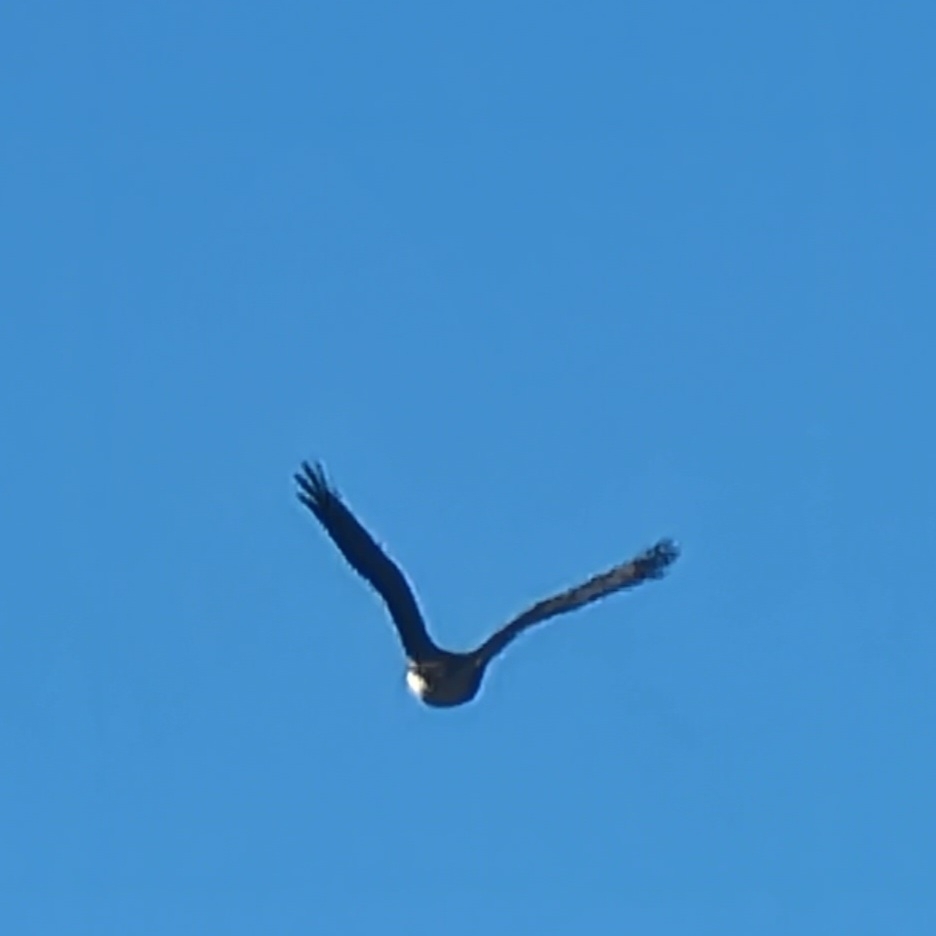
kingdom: Animalia
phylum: Chordata
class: Aves
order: Accipitriformes
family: Accipitridae
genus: Buteo
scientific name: Buteo jamaicensis
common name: Red-tailed hawk
